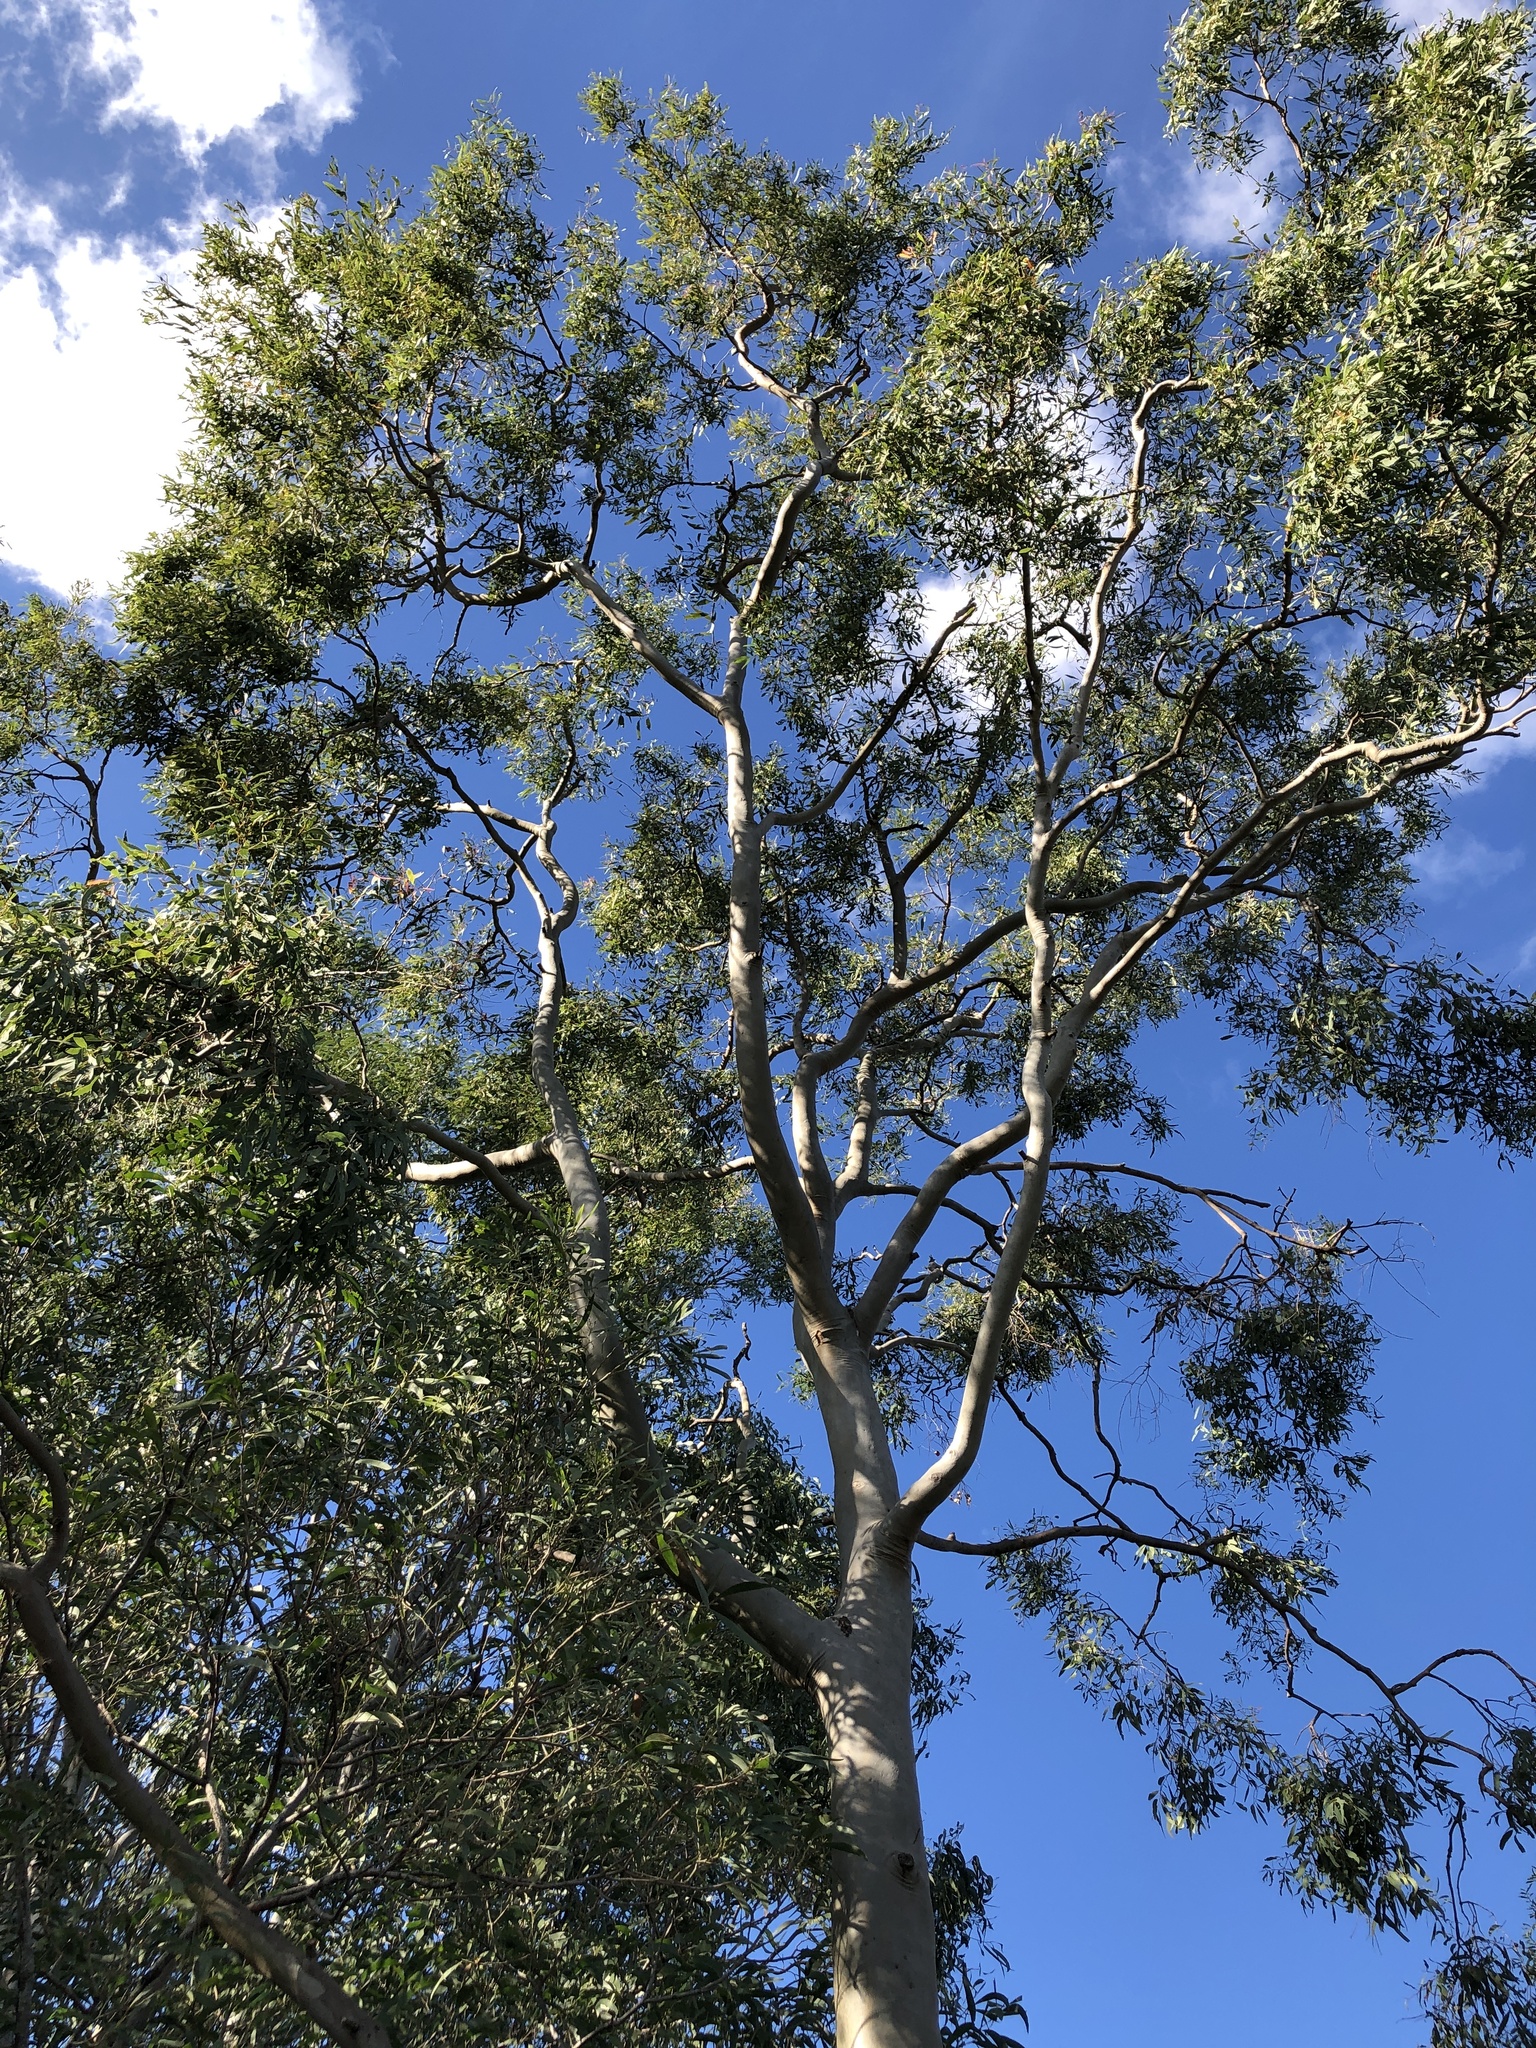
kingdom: Plantae
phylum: Tracheophyta
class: Magnoliopsida
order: Myrtales
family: Myrtaceae
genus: Corymbia
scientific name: Corymbia tessellaris
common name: Carbeen
